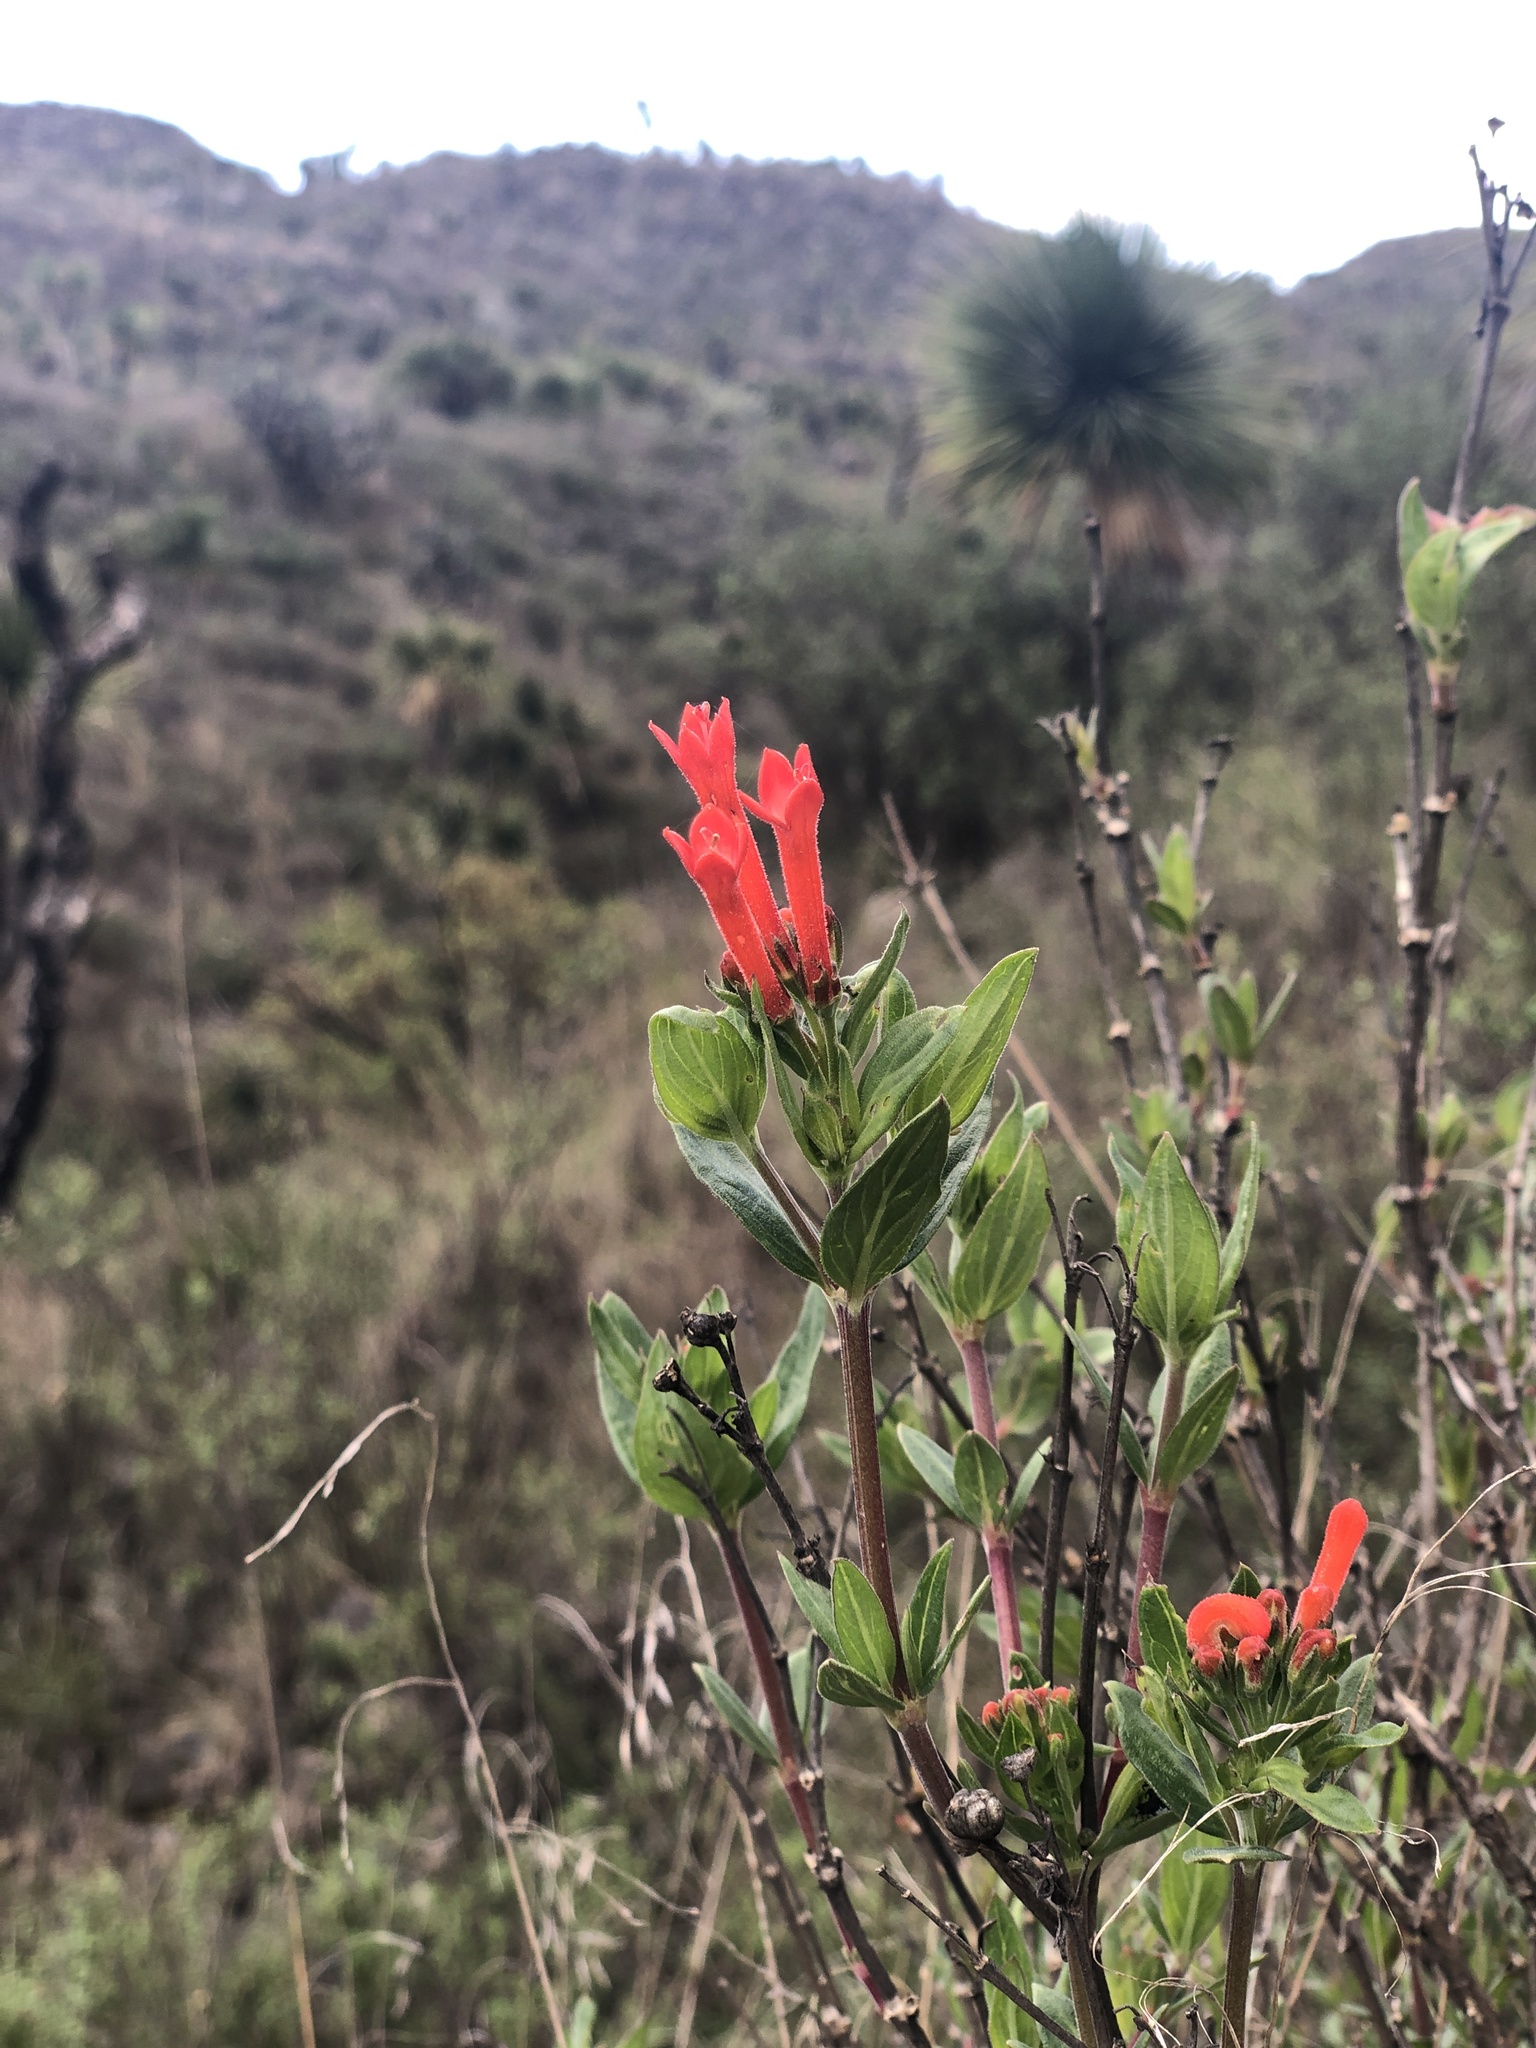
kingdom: Plantae
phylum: Tracheophyta
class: Magnoliopsida
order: Gentianales
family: Rubiaceae
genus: Bouvardia
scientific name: Bouvardia ternifolia
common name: Scarlet bouvardia
